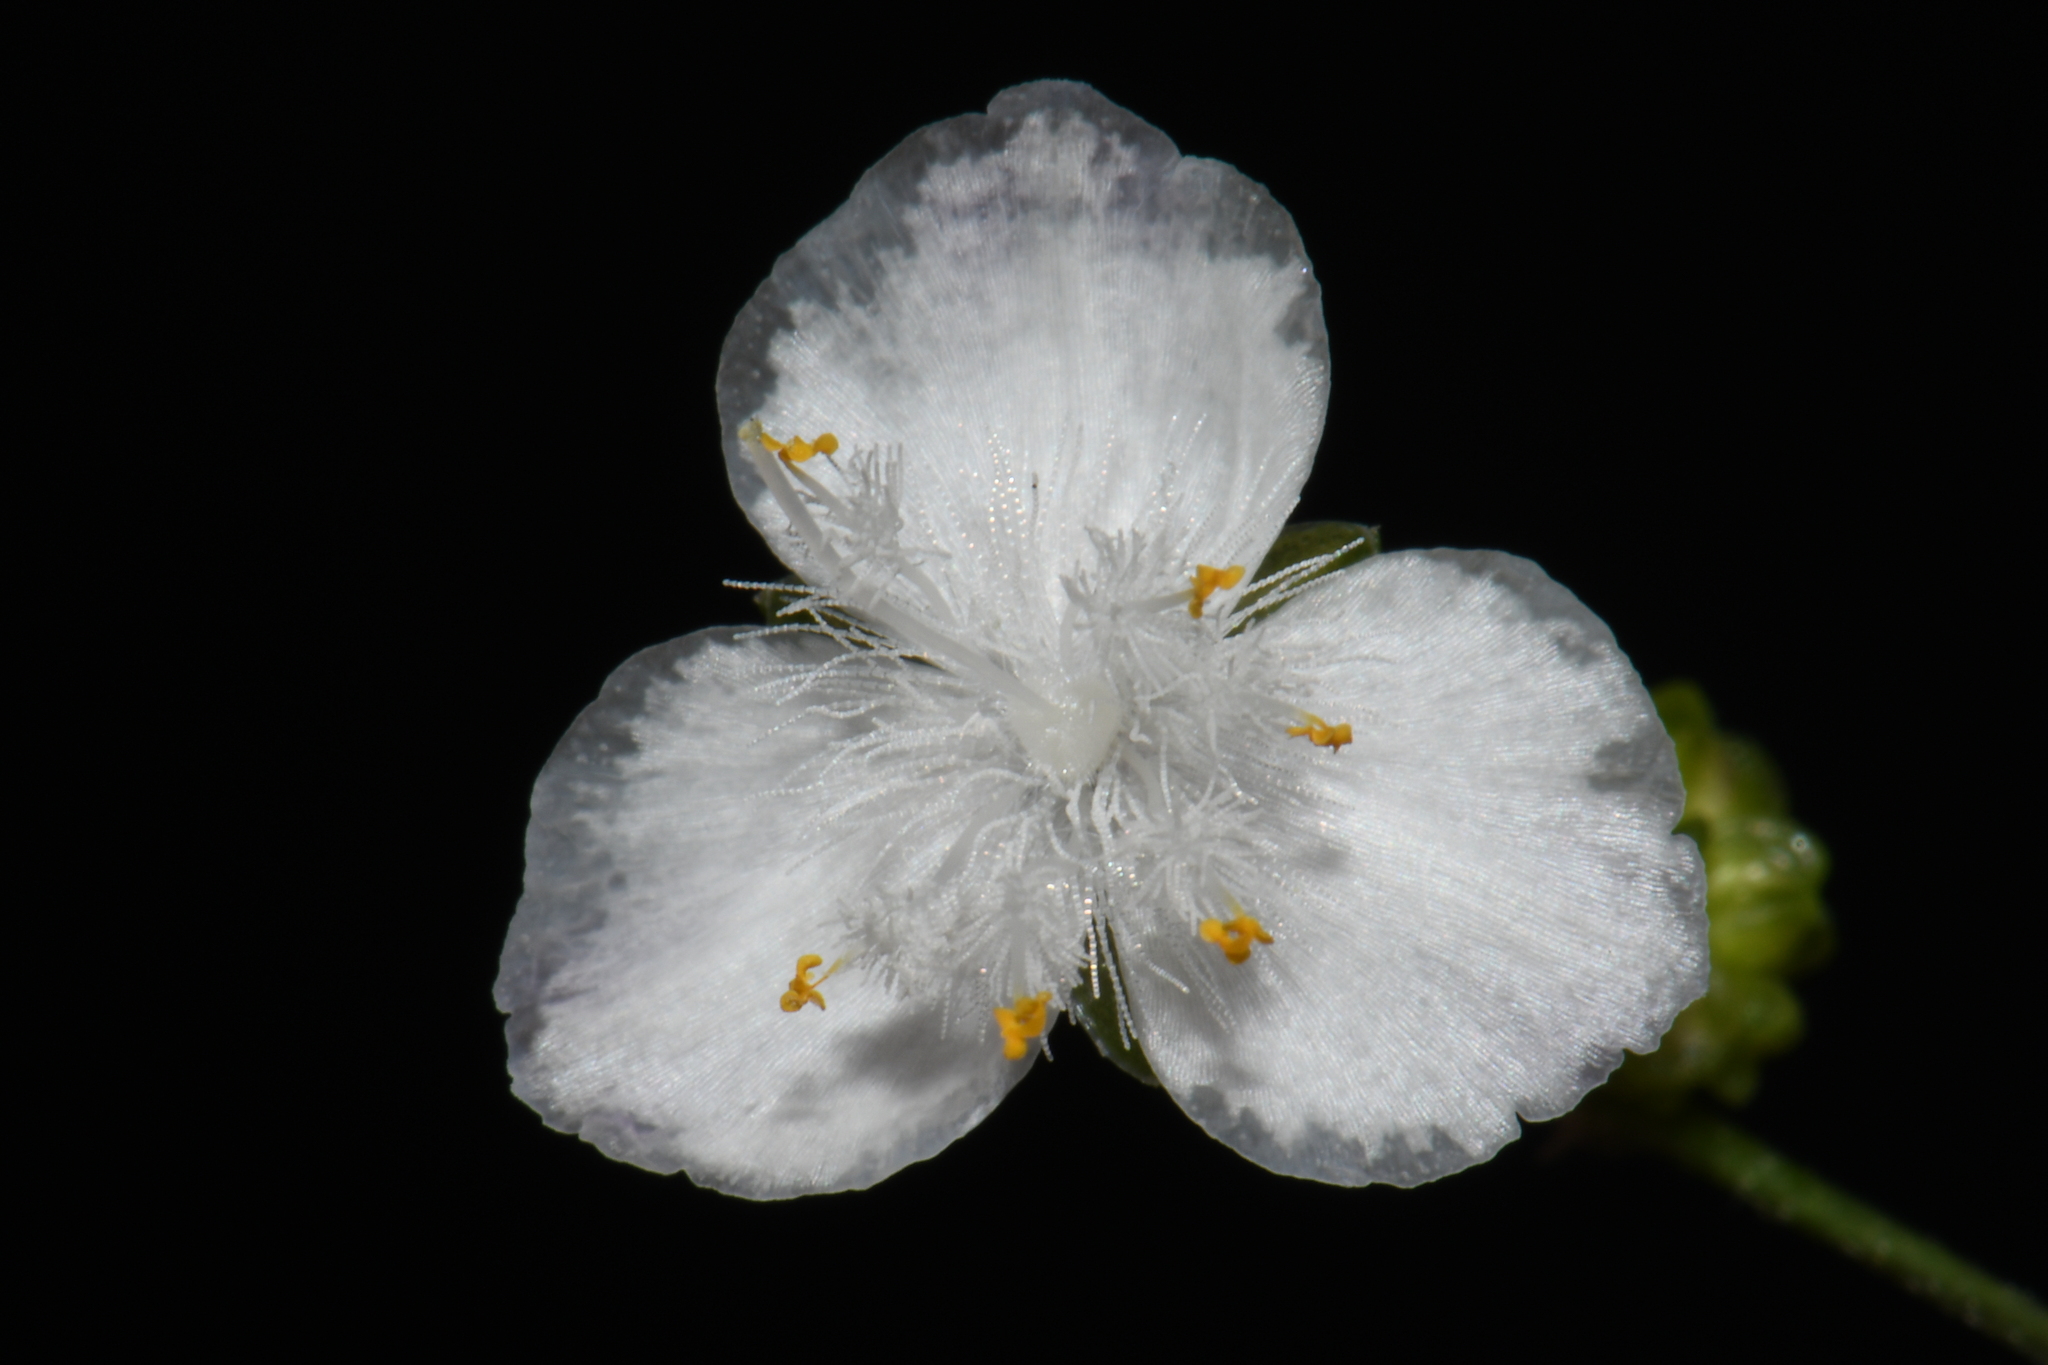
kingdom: Plantae
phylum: Tracheophyta
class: Liliopsida
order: Commelinales
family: Commelinaceae
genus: Gibasis
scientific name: Gibasis pellucida
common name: Dotted bridalveil
